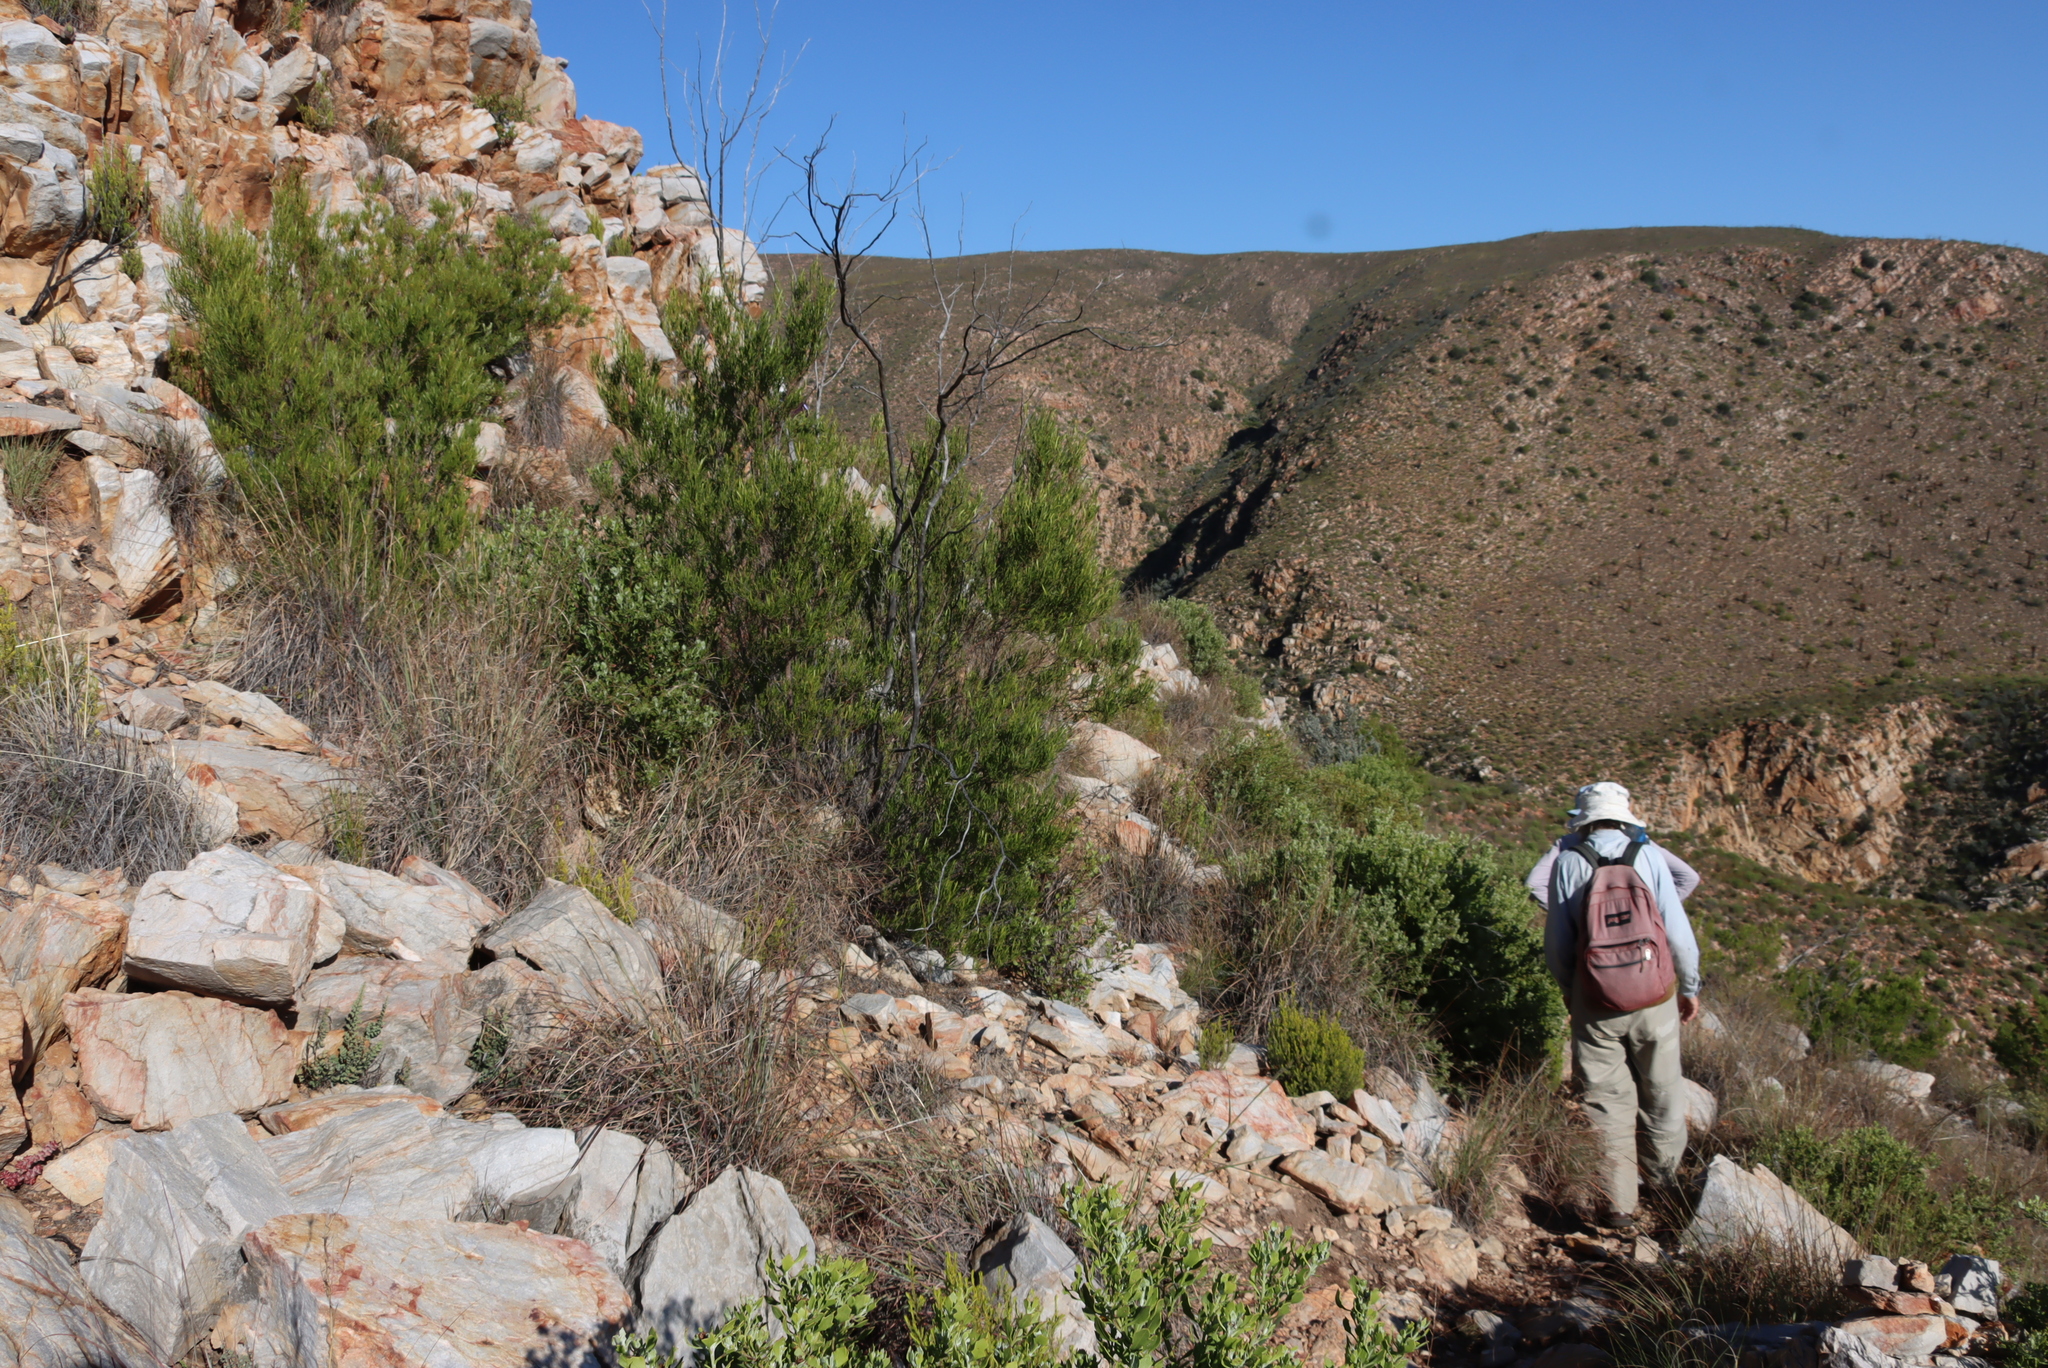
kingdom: Plantae
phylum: Tracheophyta
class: Magnoliopsida
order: Sapindales
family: Sapindaceae
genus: Dodonaea
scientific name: Dodonaea viscosa
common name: Hopbush
